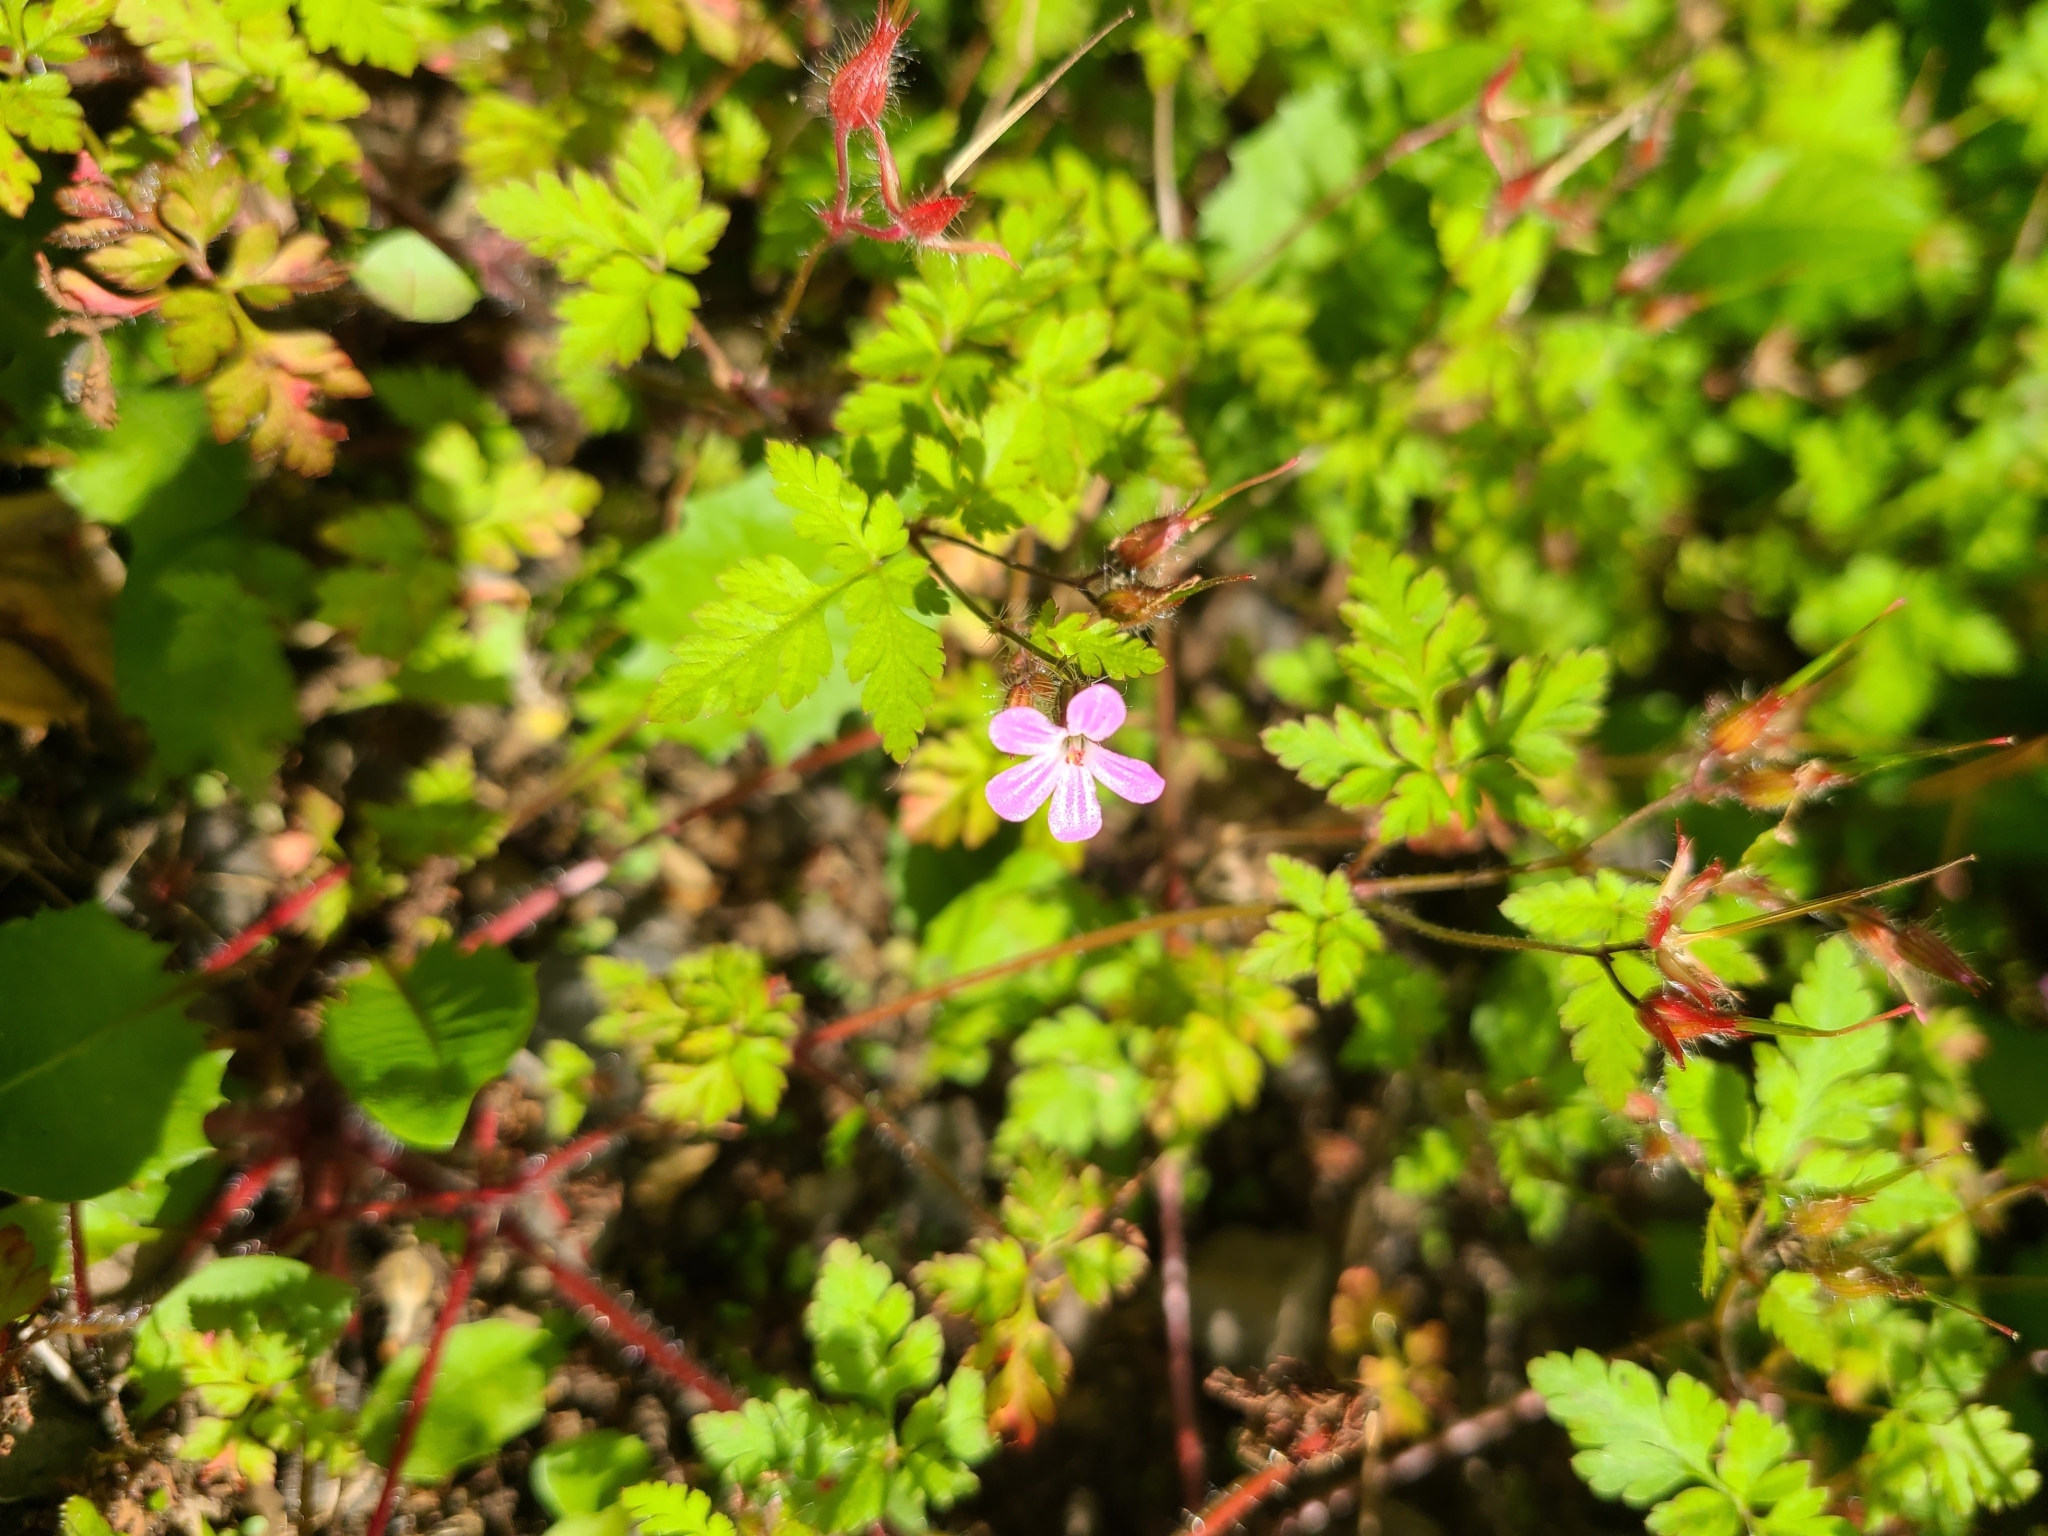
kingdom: Plantae
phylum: Tracheophyta
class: Magnoliopsida
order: Geraniales
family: Geraniaceae
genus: Geranium
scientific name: Geranium robertianum
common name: Herb-robert
